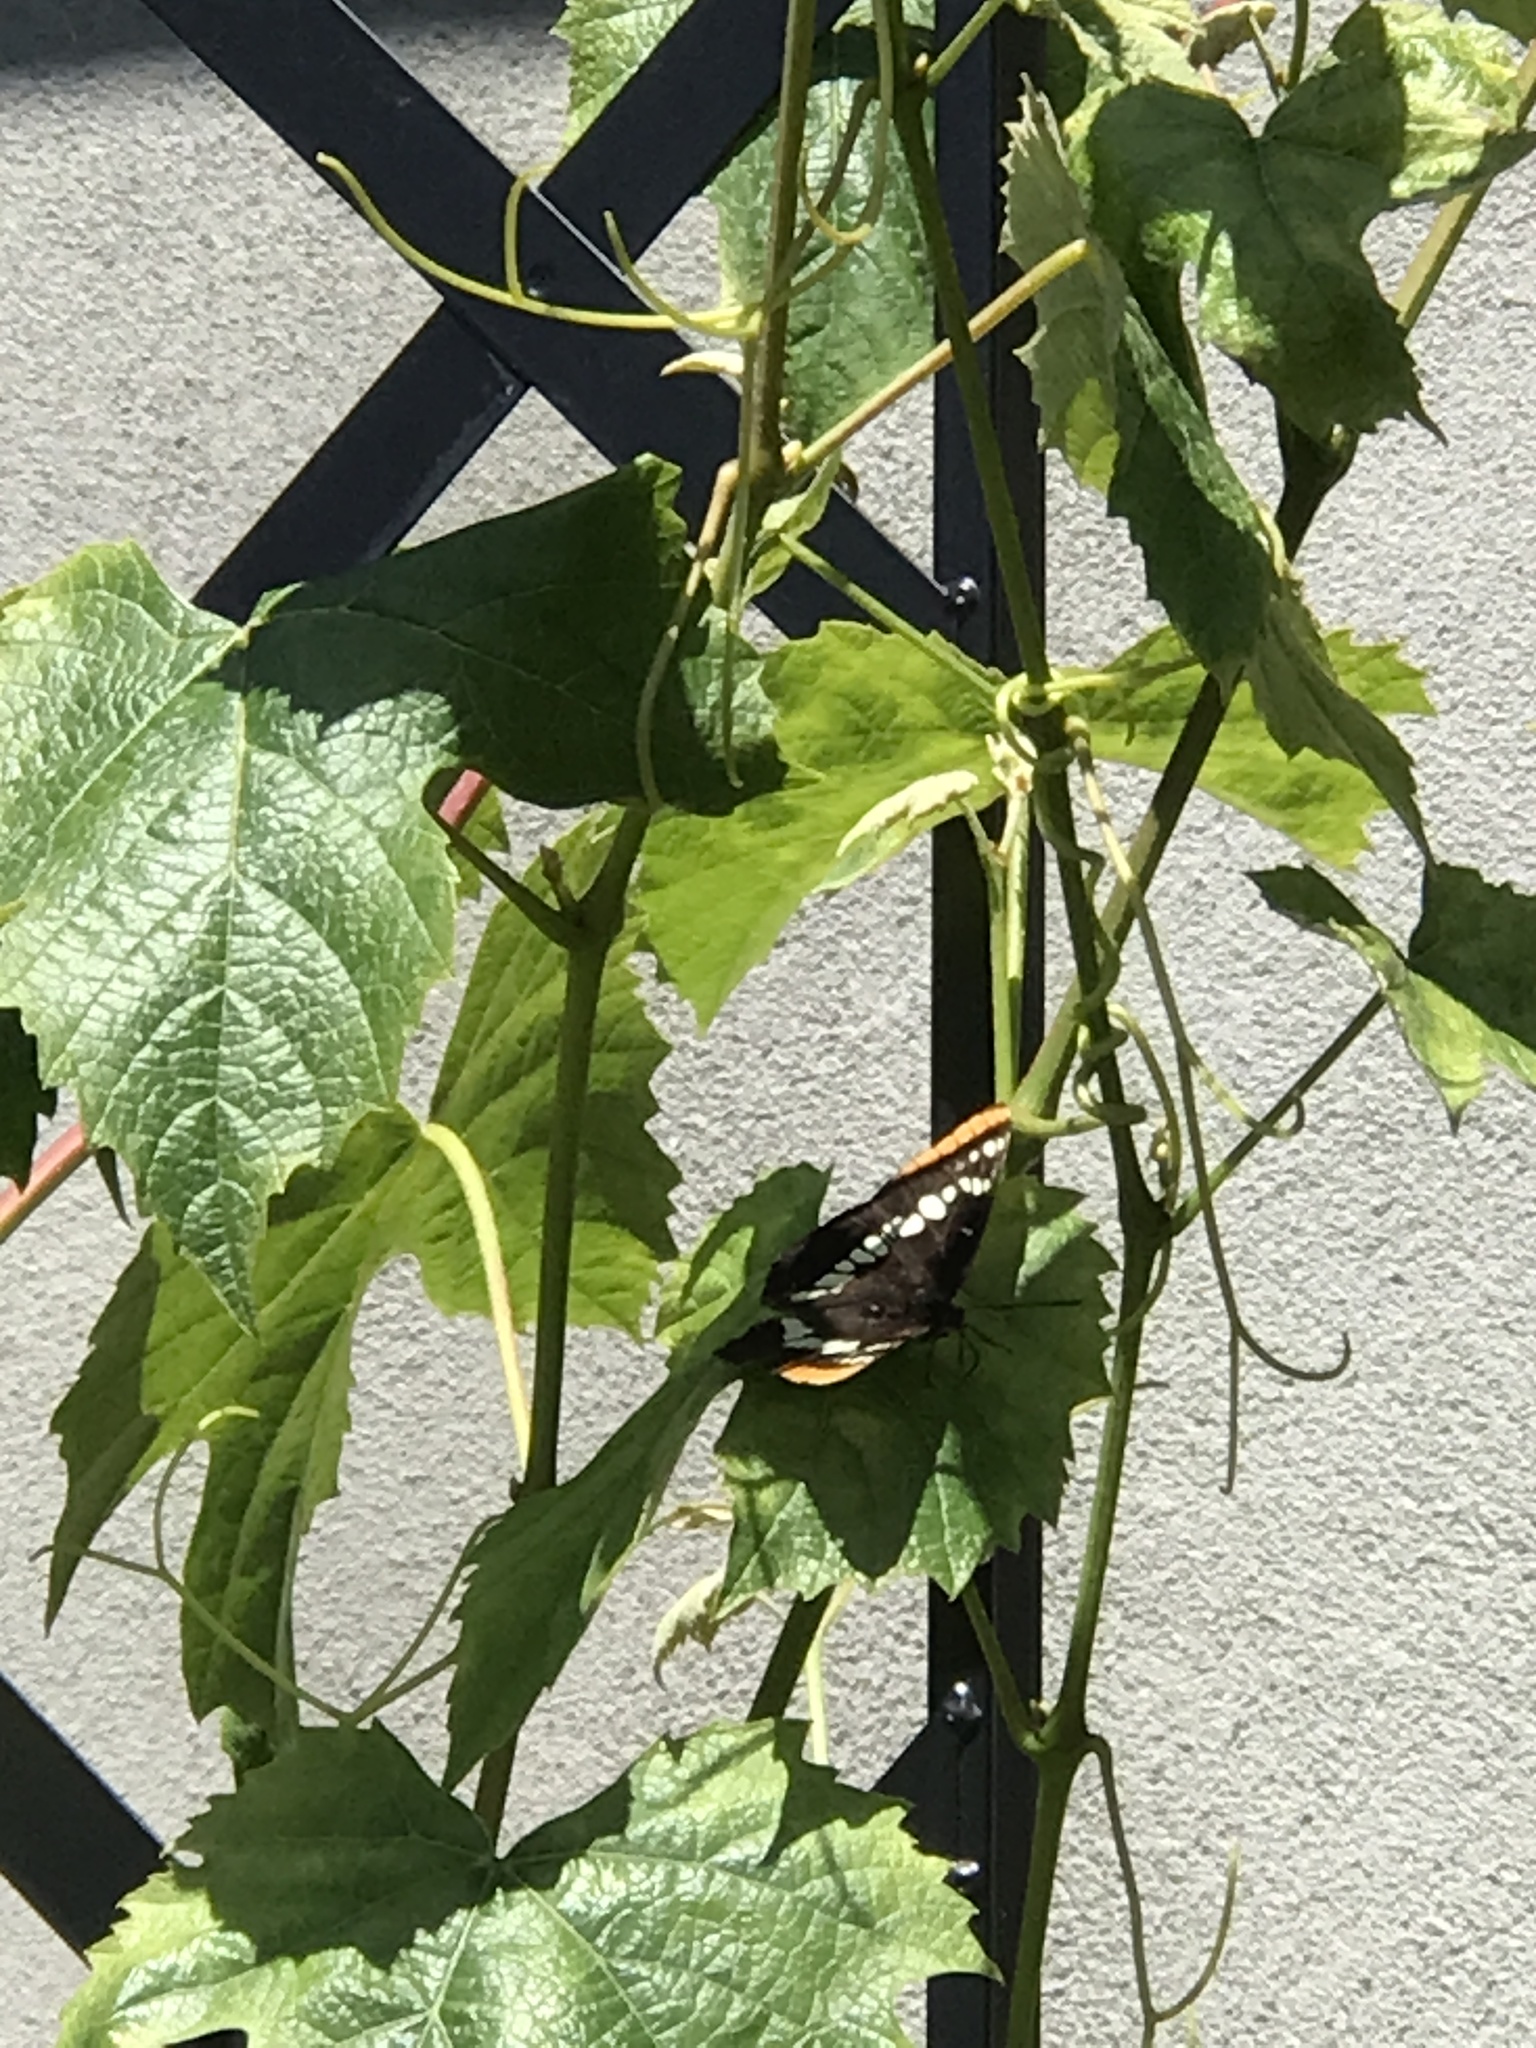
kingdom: Animalia
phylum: Arthropoda
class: Insecta
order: Lepidoptera
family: Nymphalidae
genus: Limenitis
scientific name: Limenitis lorquini
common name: Lorquin's admiral
